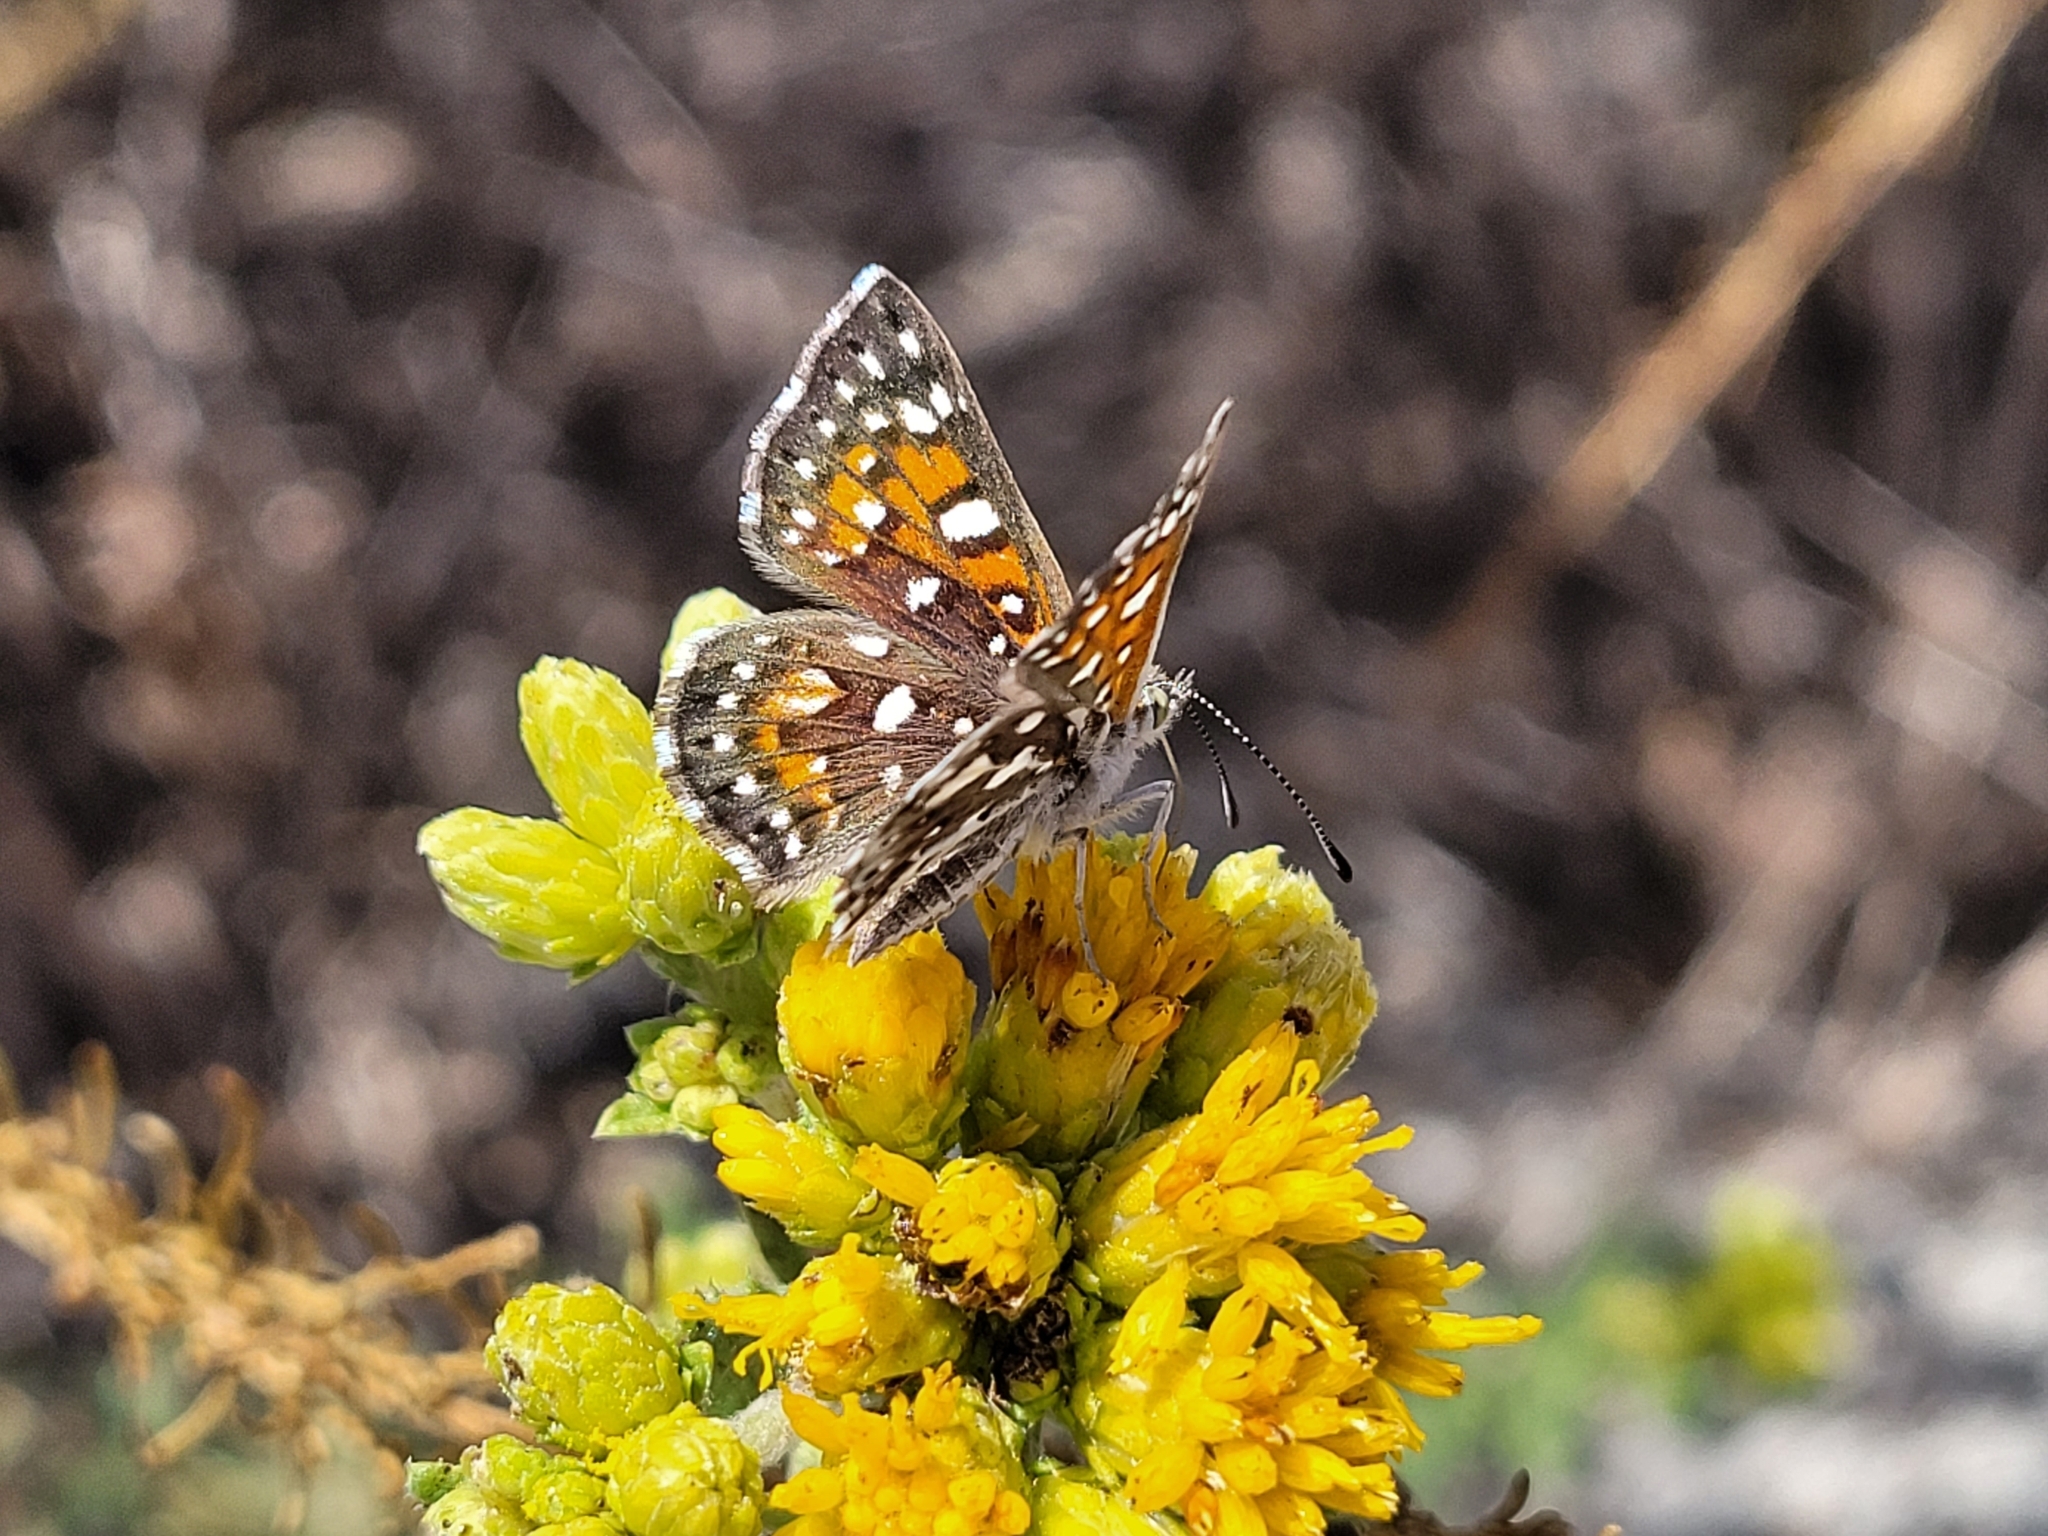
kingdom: Animalia
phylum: Arthropoda
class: Insecta
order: Lepidoptera
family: Riodinidae
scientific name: Riodinidae
